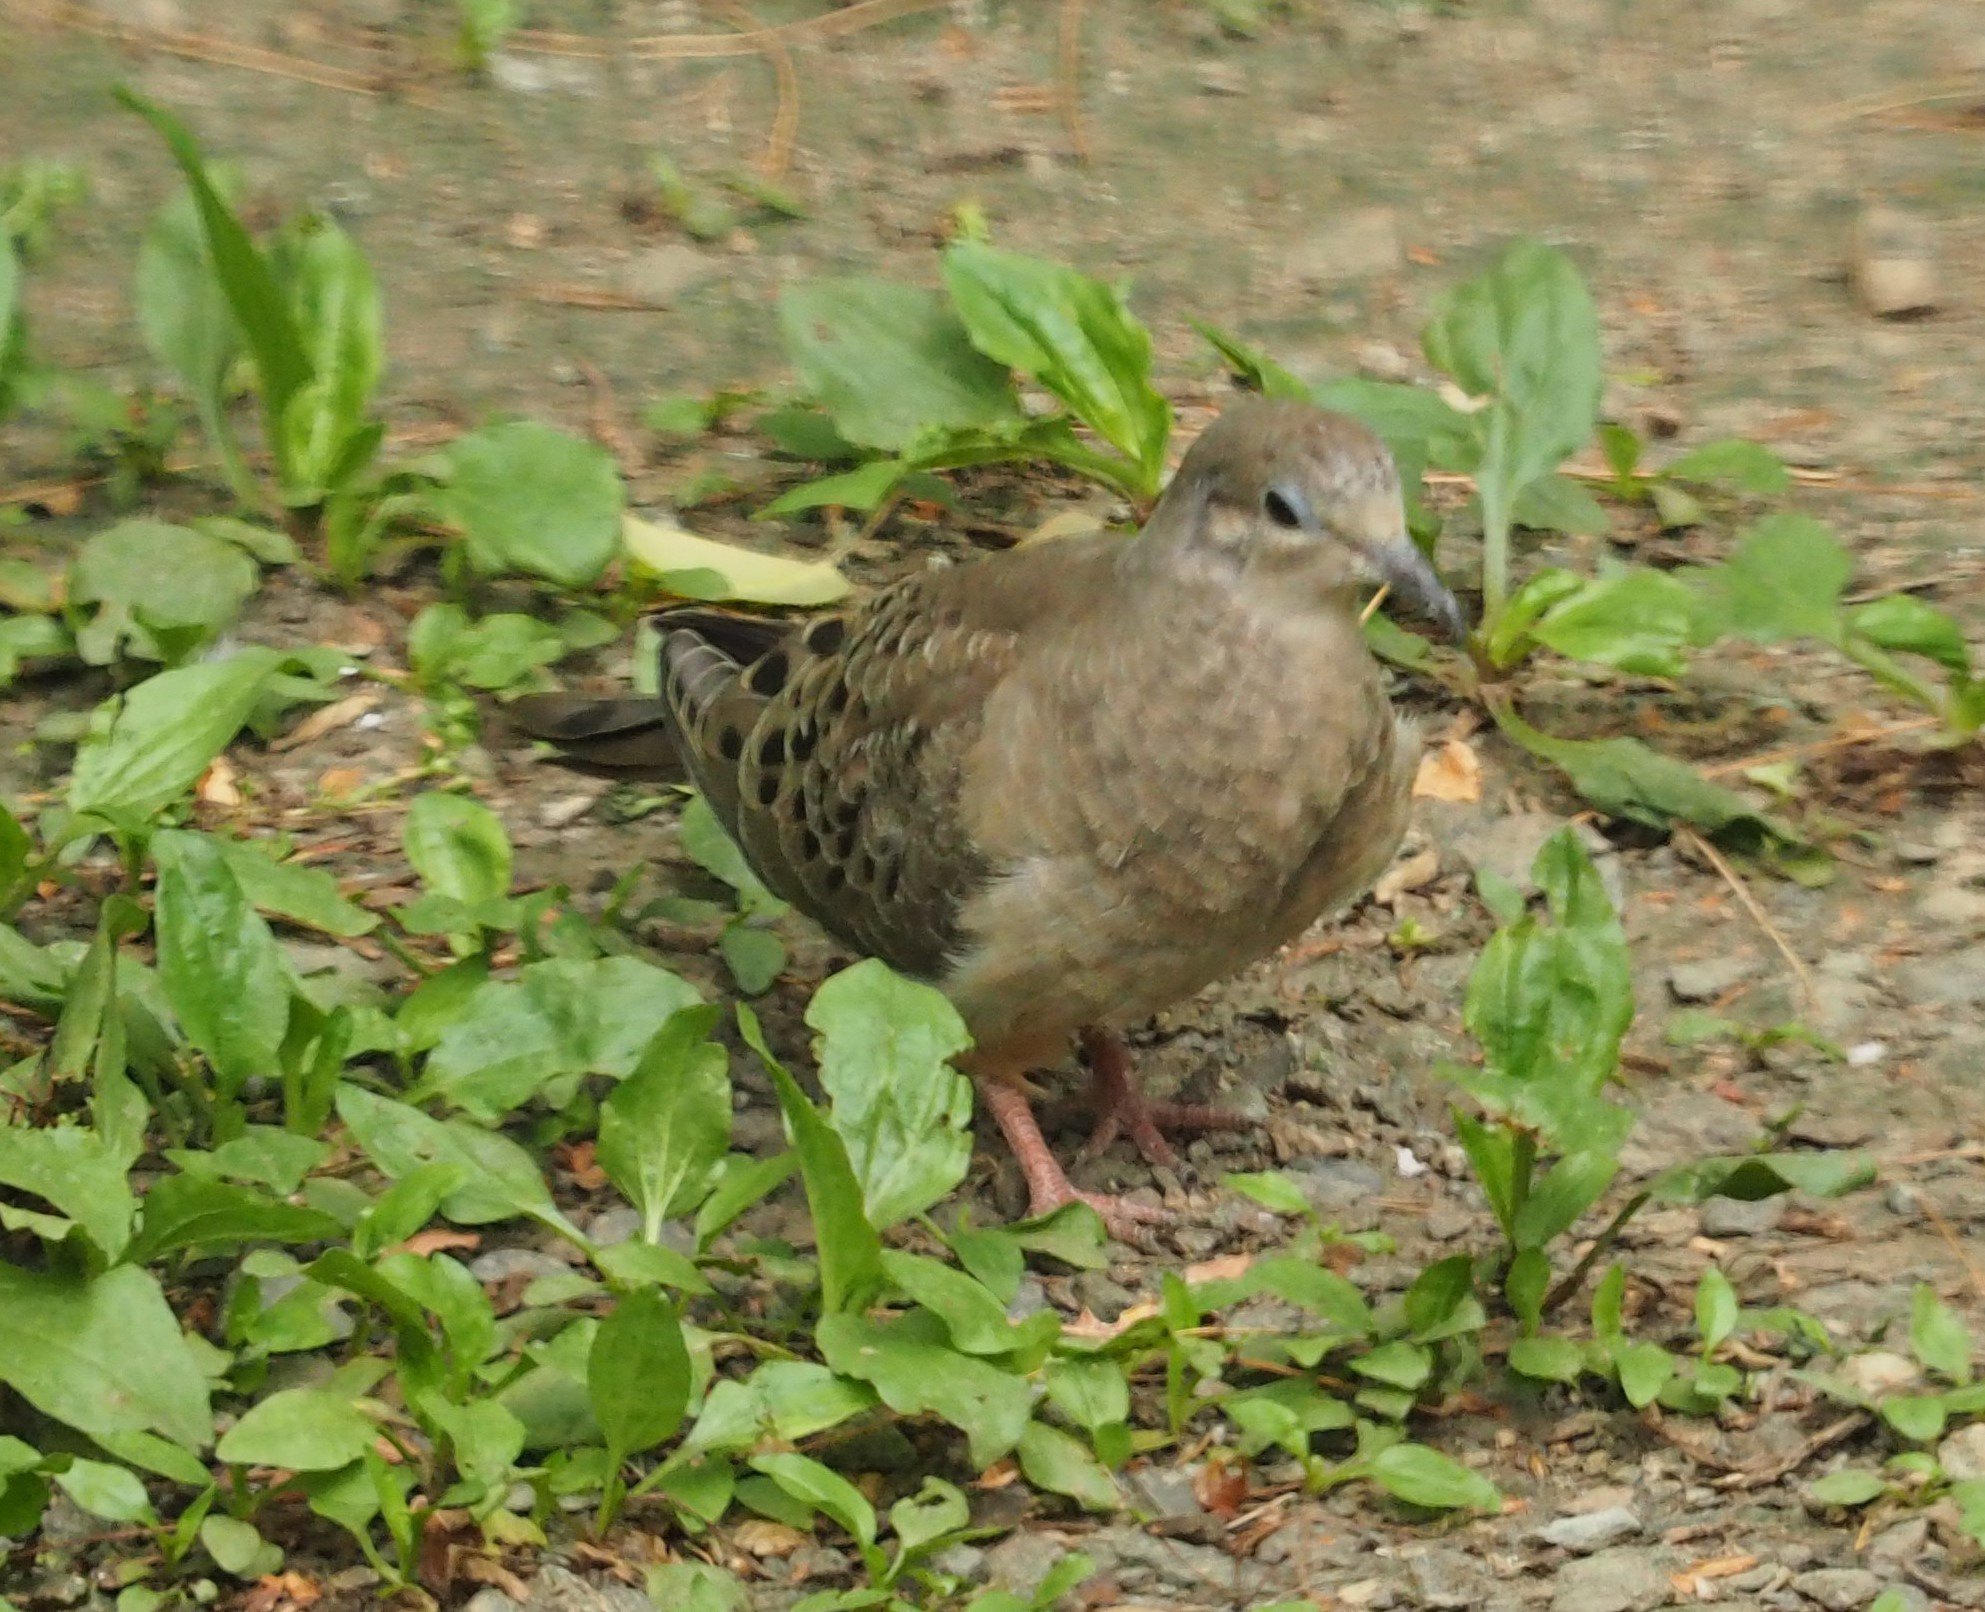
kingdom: Animalia
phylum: Chordata
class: Aves
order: Columbiformes
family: Columbidae
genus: Zenaida
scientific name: Zenaida macroura
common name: Mourning dove
